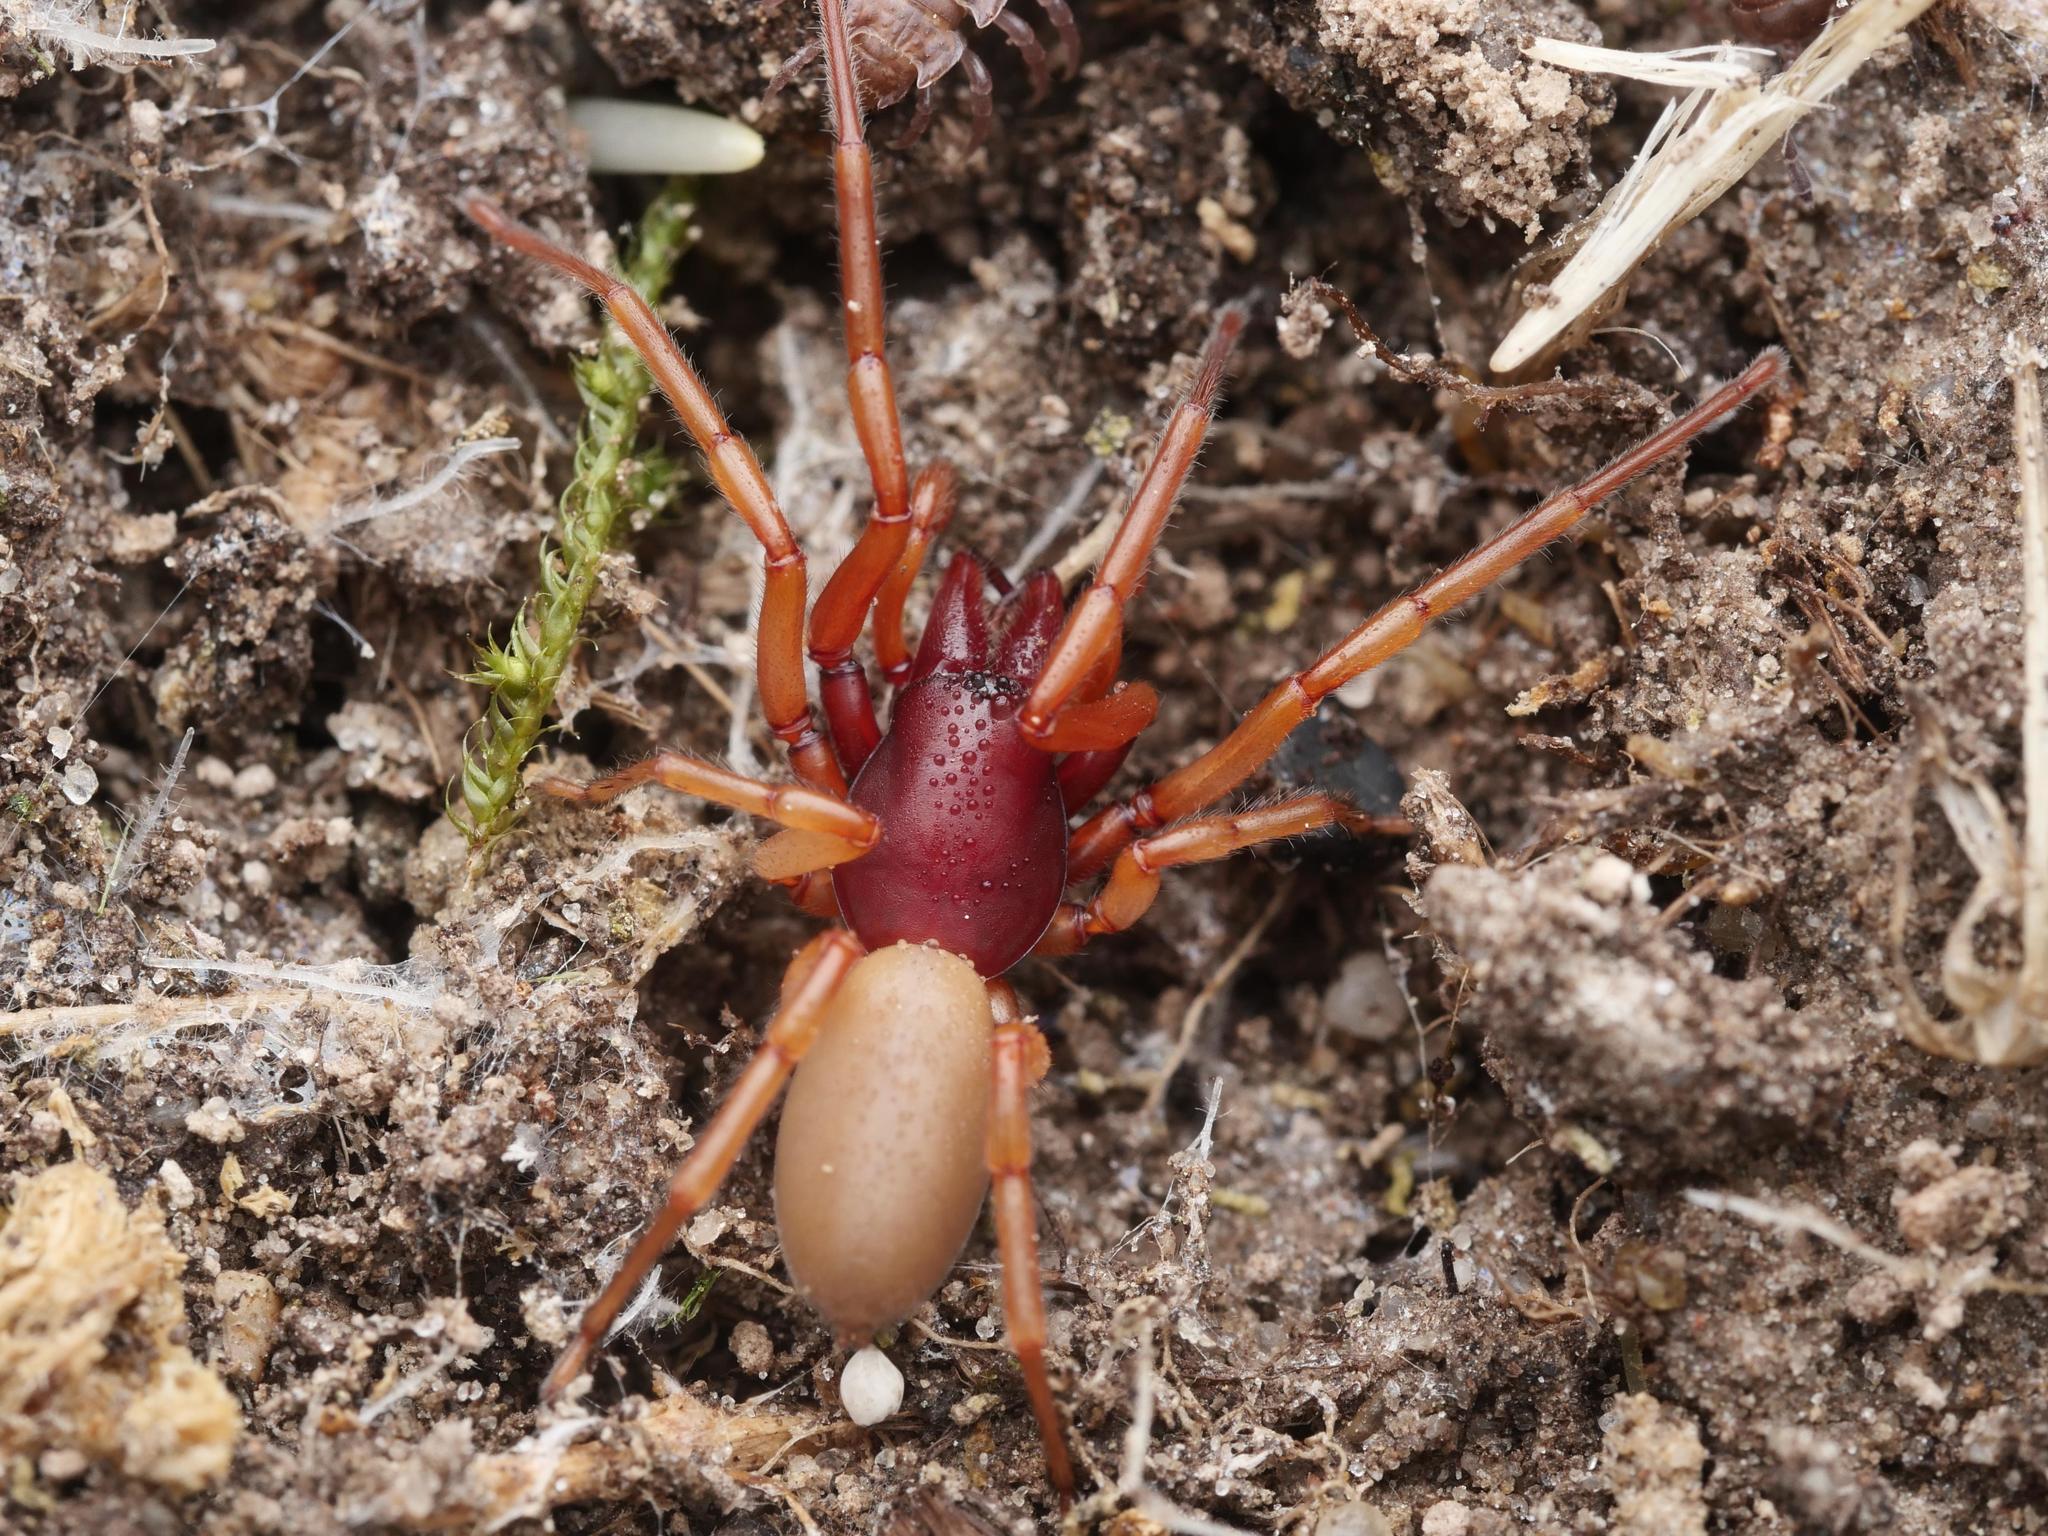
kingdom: Animalia
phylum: Arthropoda
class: Arachnida
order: Araneae
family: Dysderidae
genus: Dysdera
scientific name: Dysdera crocata
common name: Woodlouse spider
